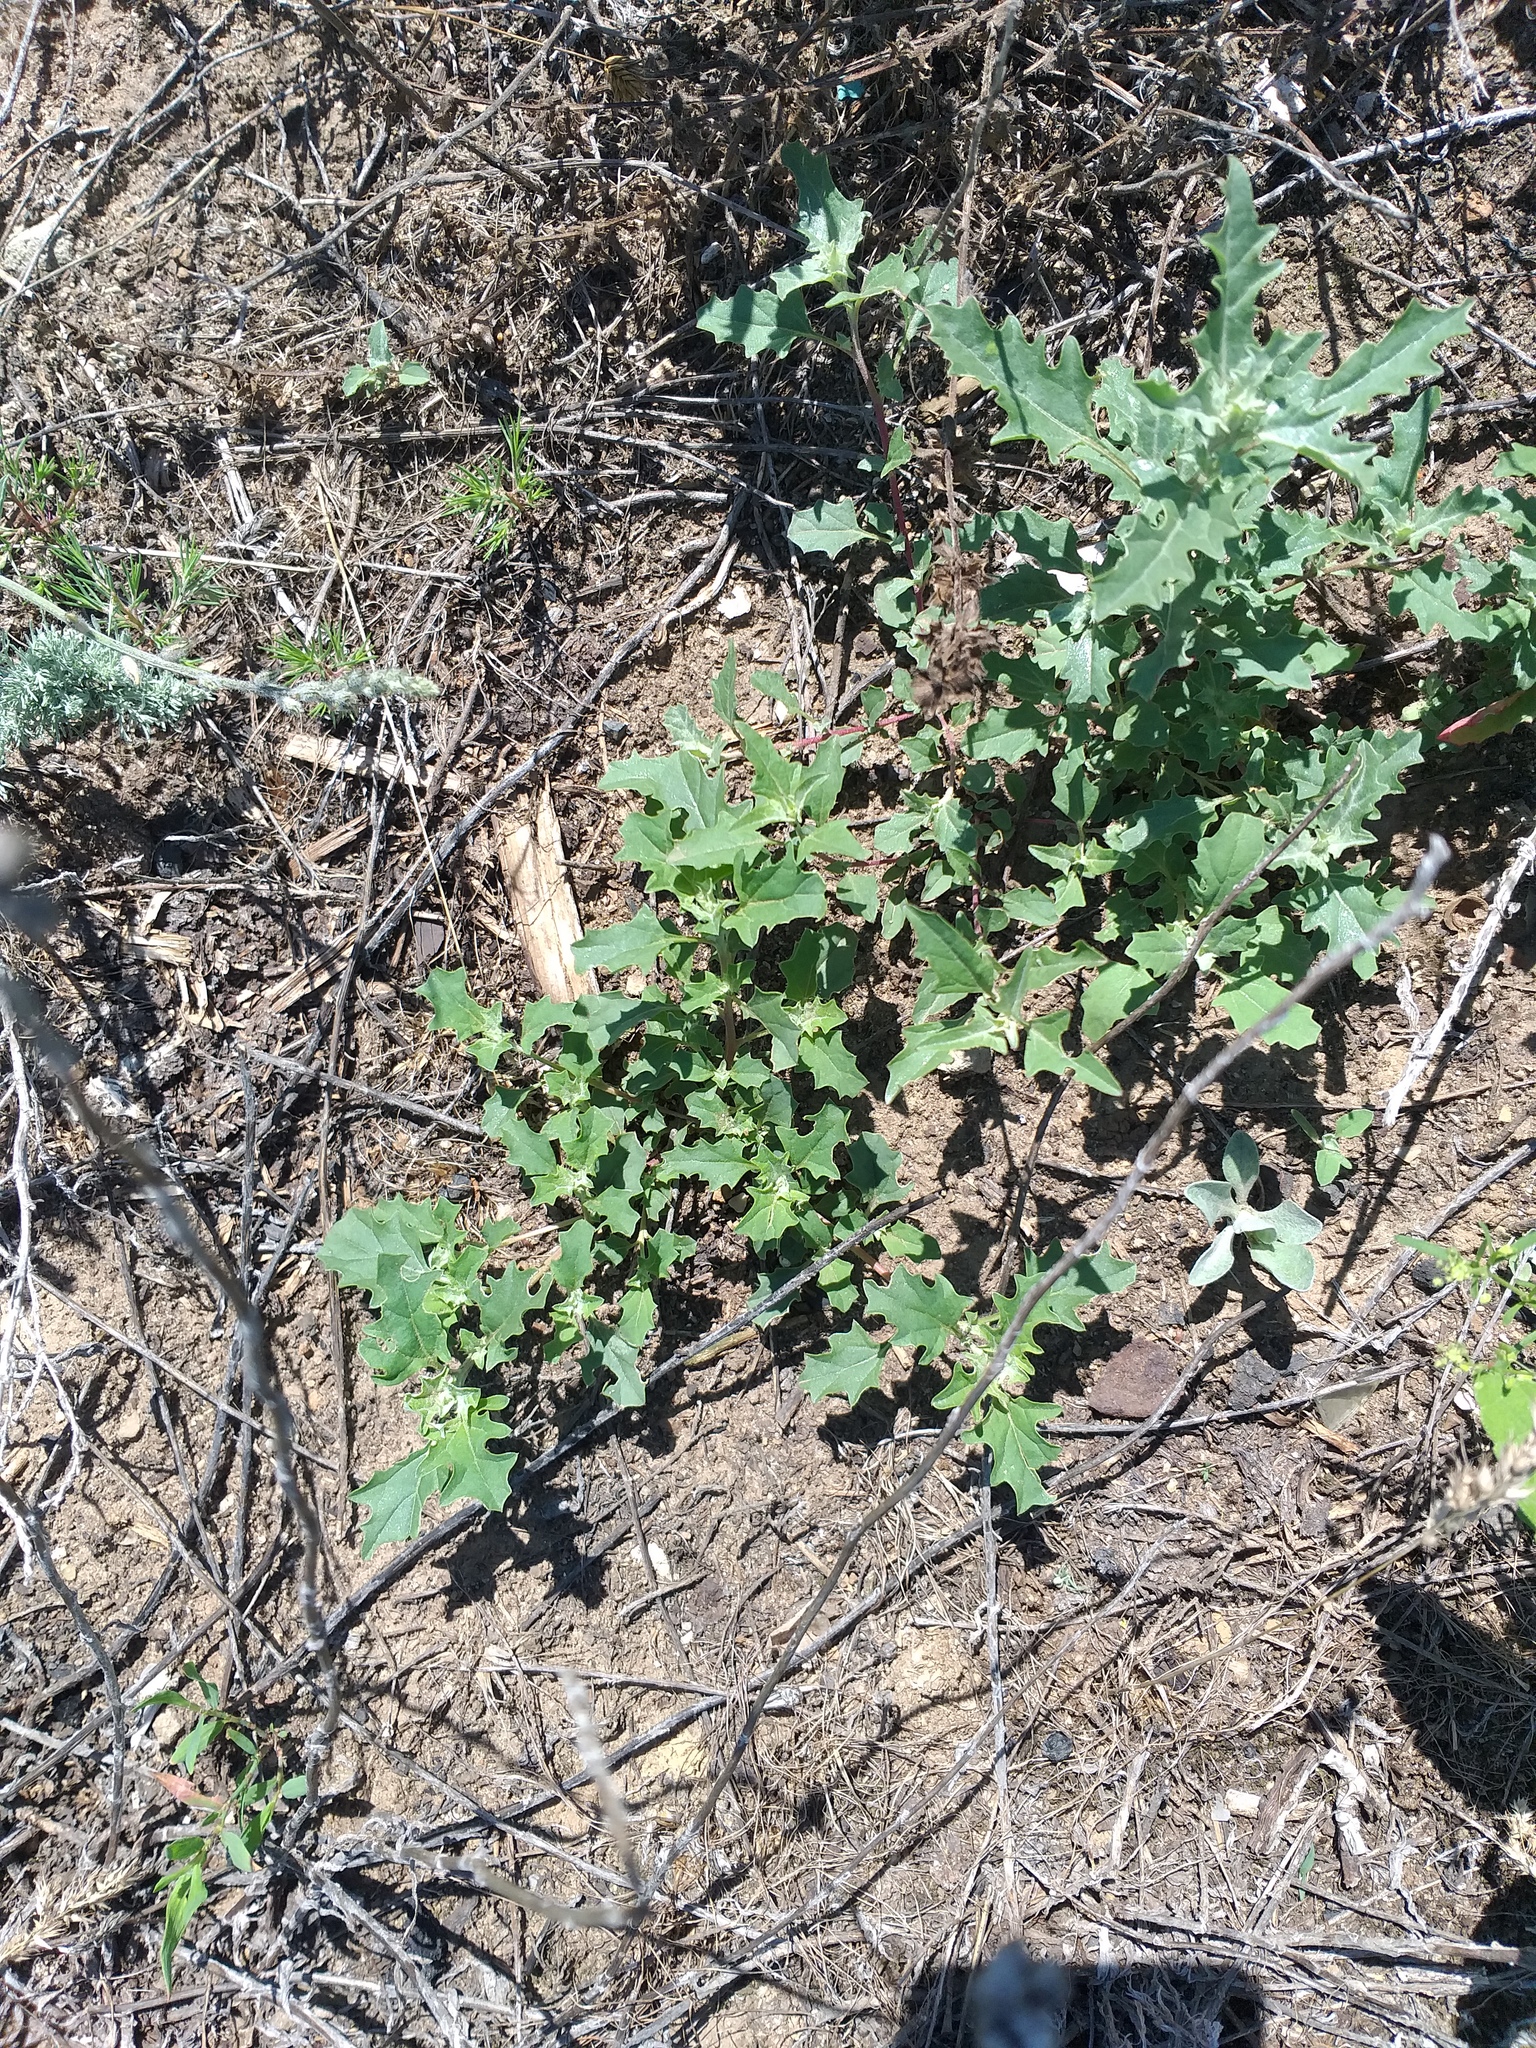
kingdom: Plantae
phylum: Tracheophyta
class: Magnoliopsida
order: Caryophyllales
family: Amaranthaceae
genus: Atriplex
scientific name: Atriplex tatarica
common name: Tatarian orache
